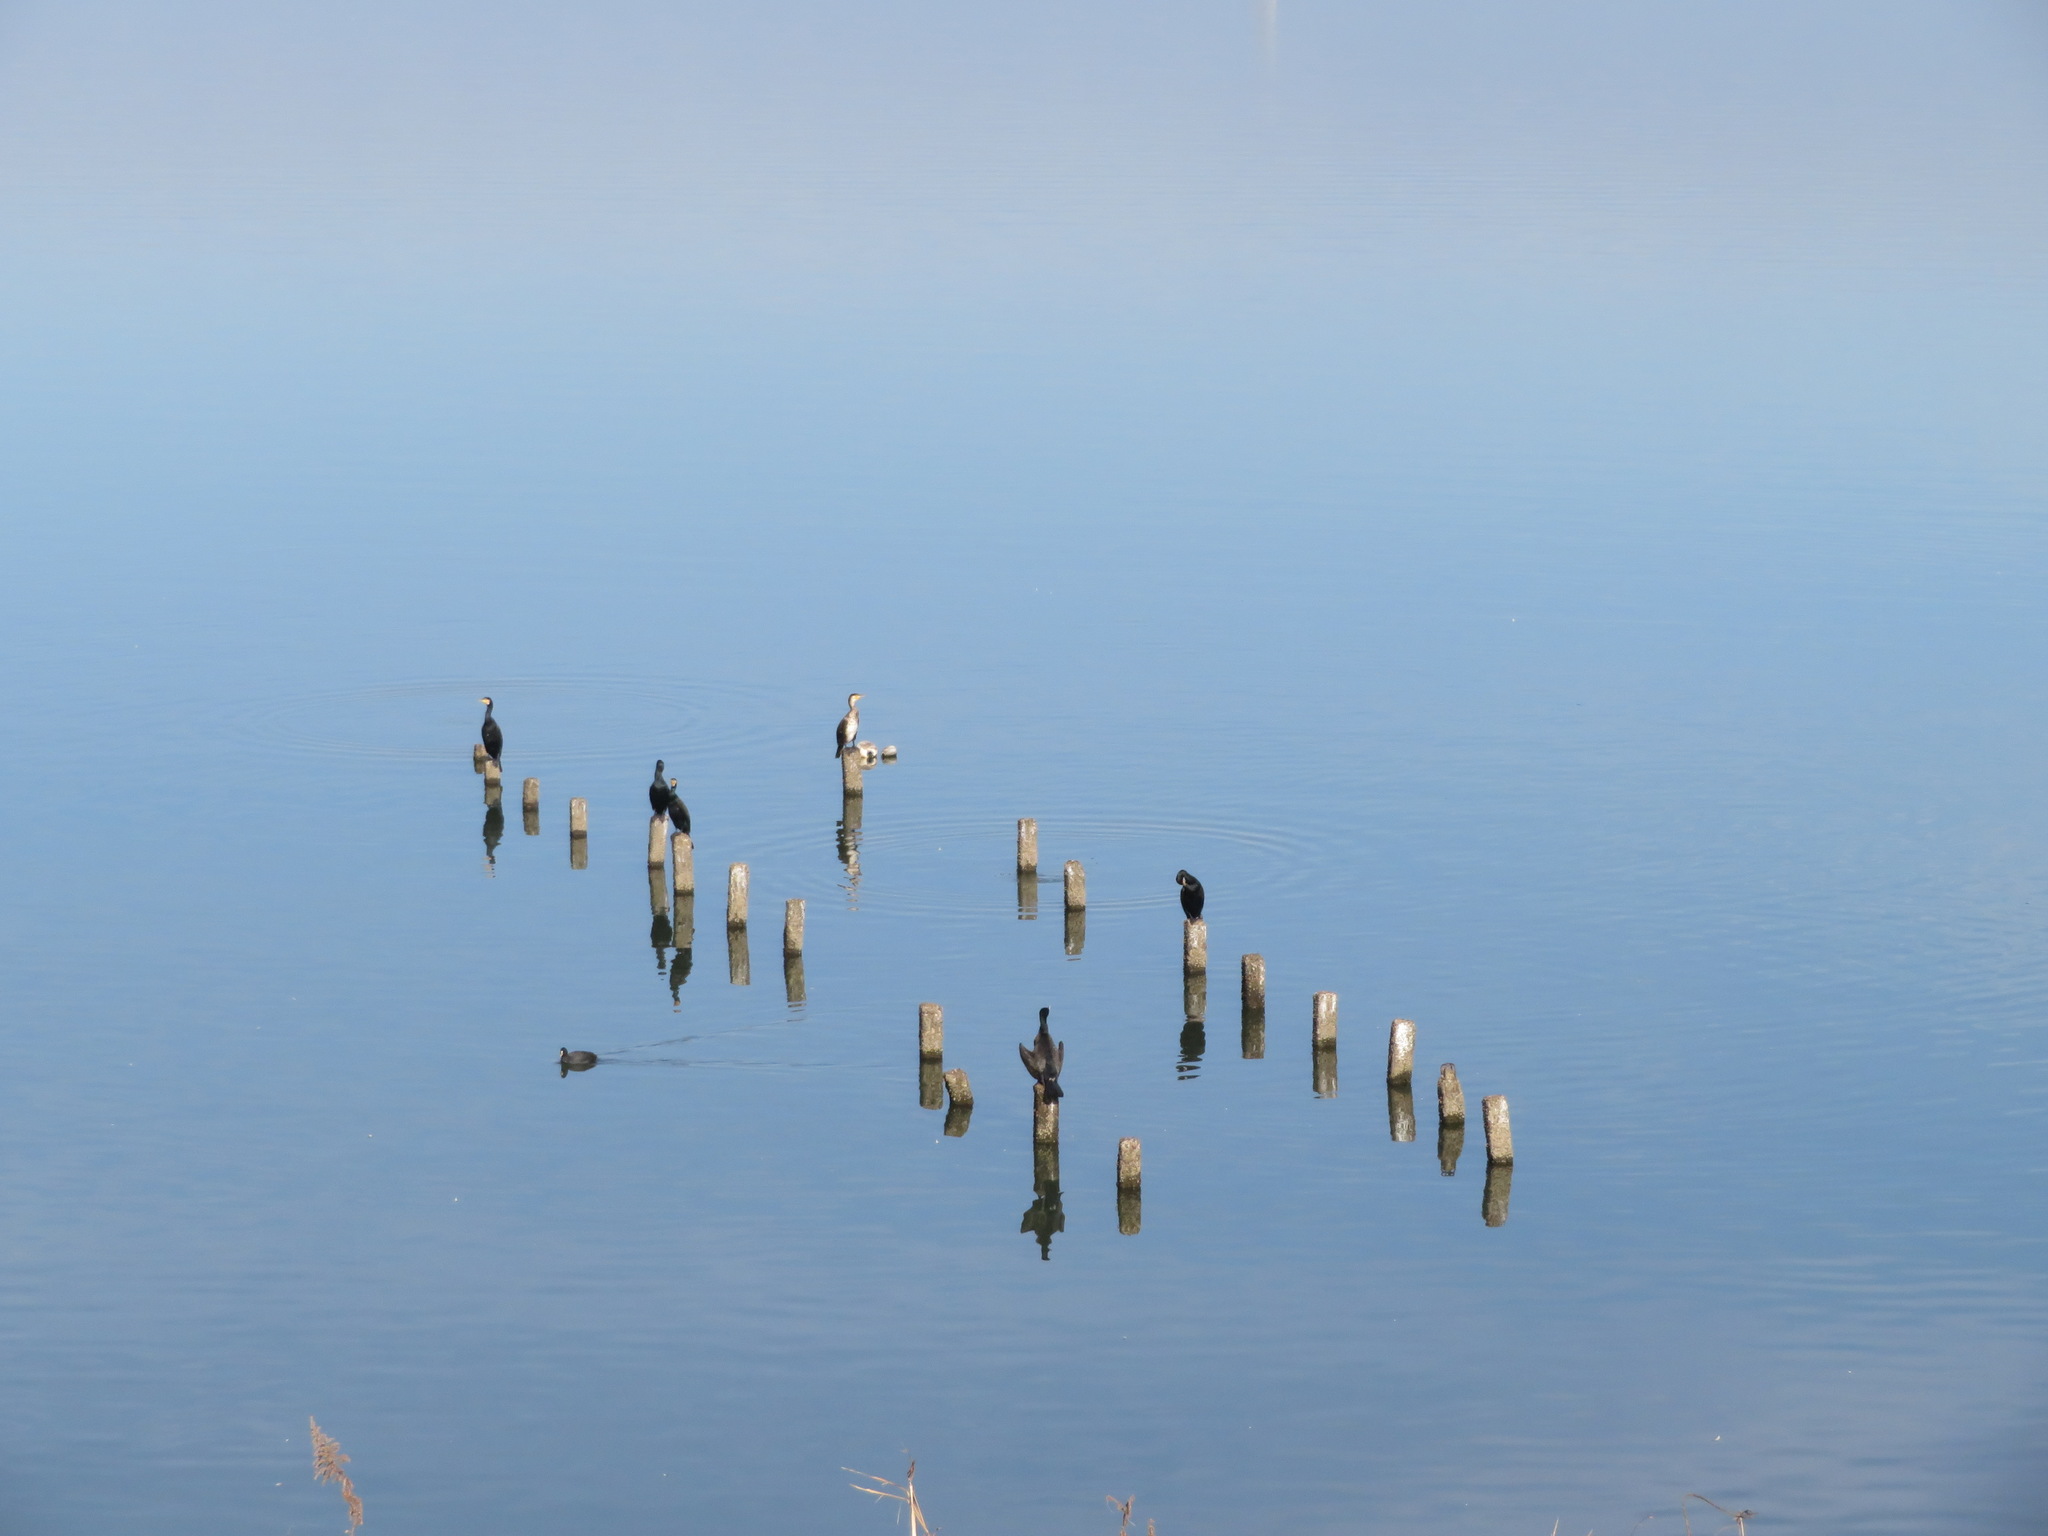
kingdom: Animalia
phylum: Chordata
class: Aves
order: Suliformes
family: Phalacrocoracidae
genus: Phalacrocorax
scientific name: Phalacrocorax carbo
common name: Great cormorant
